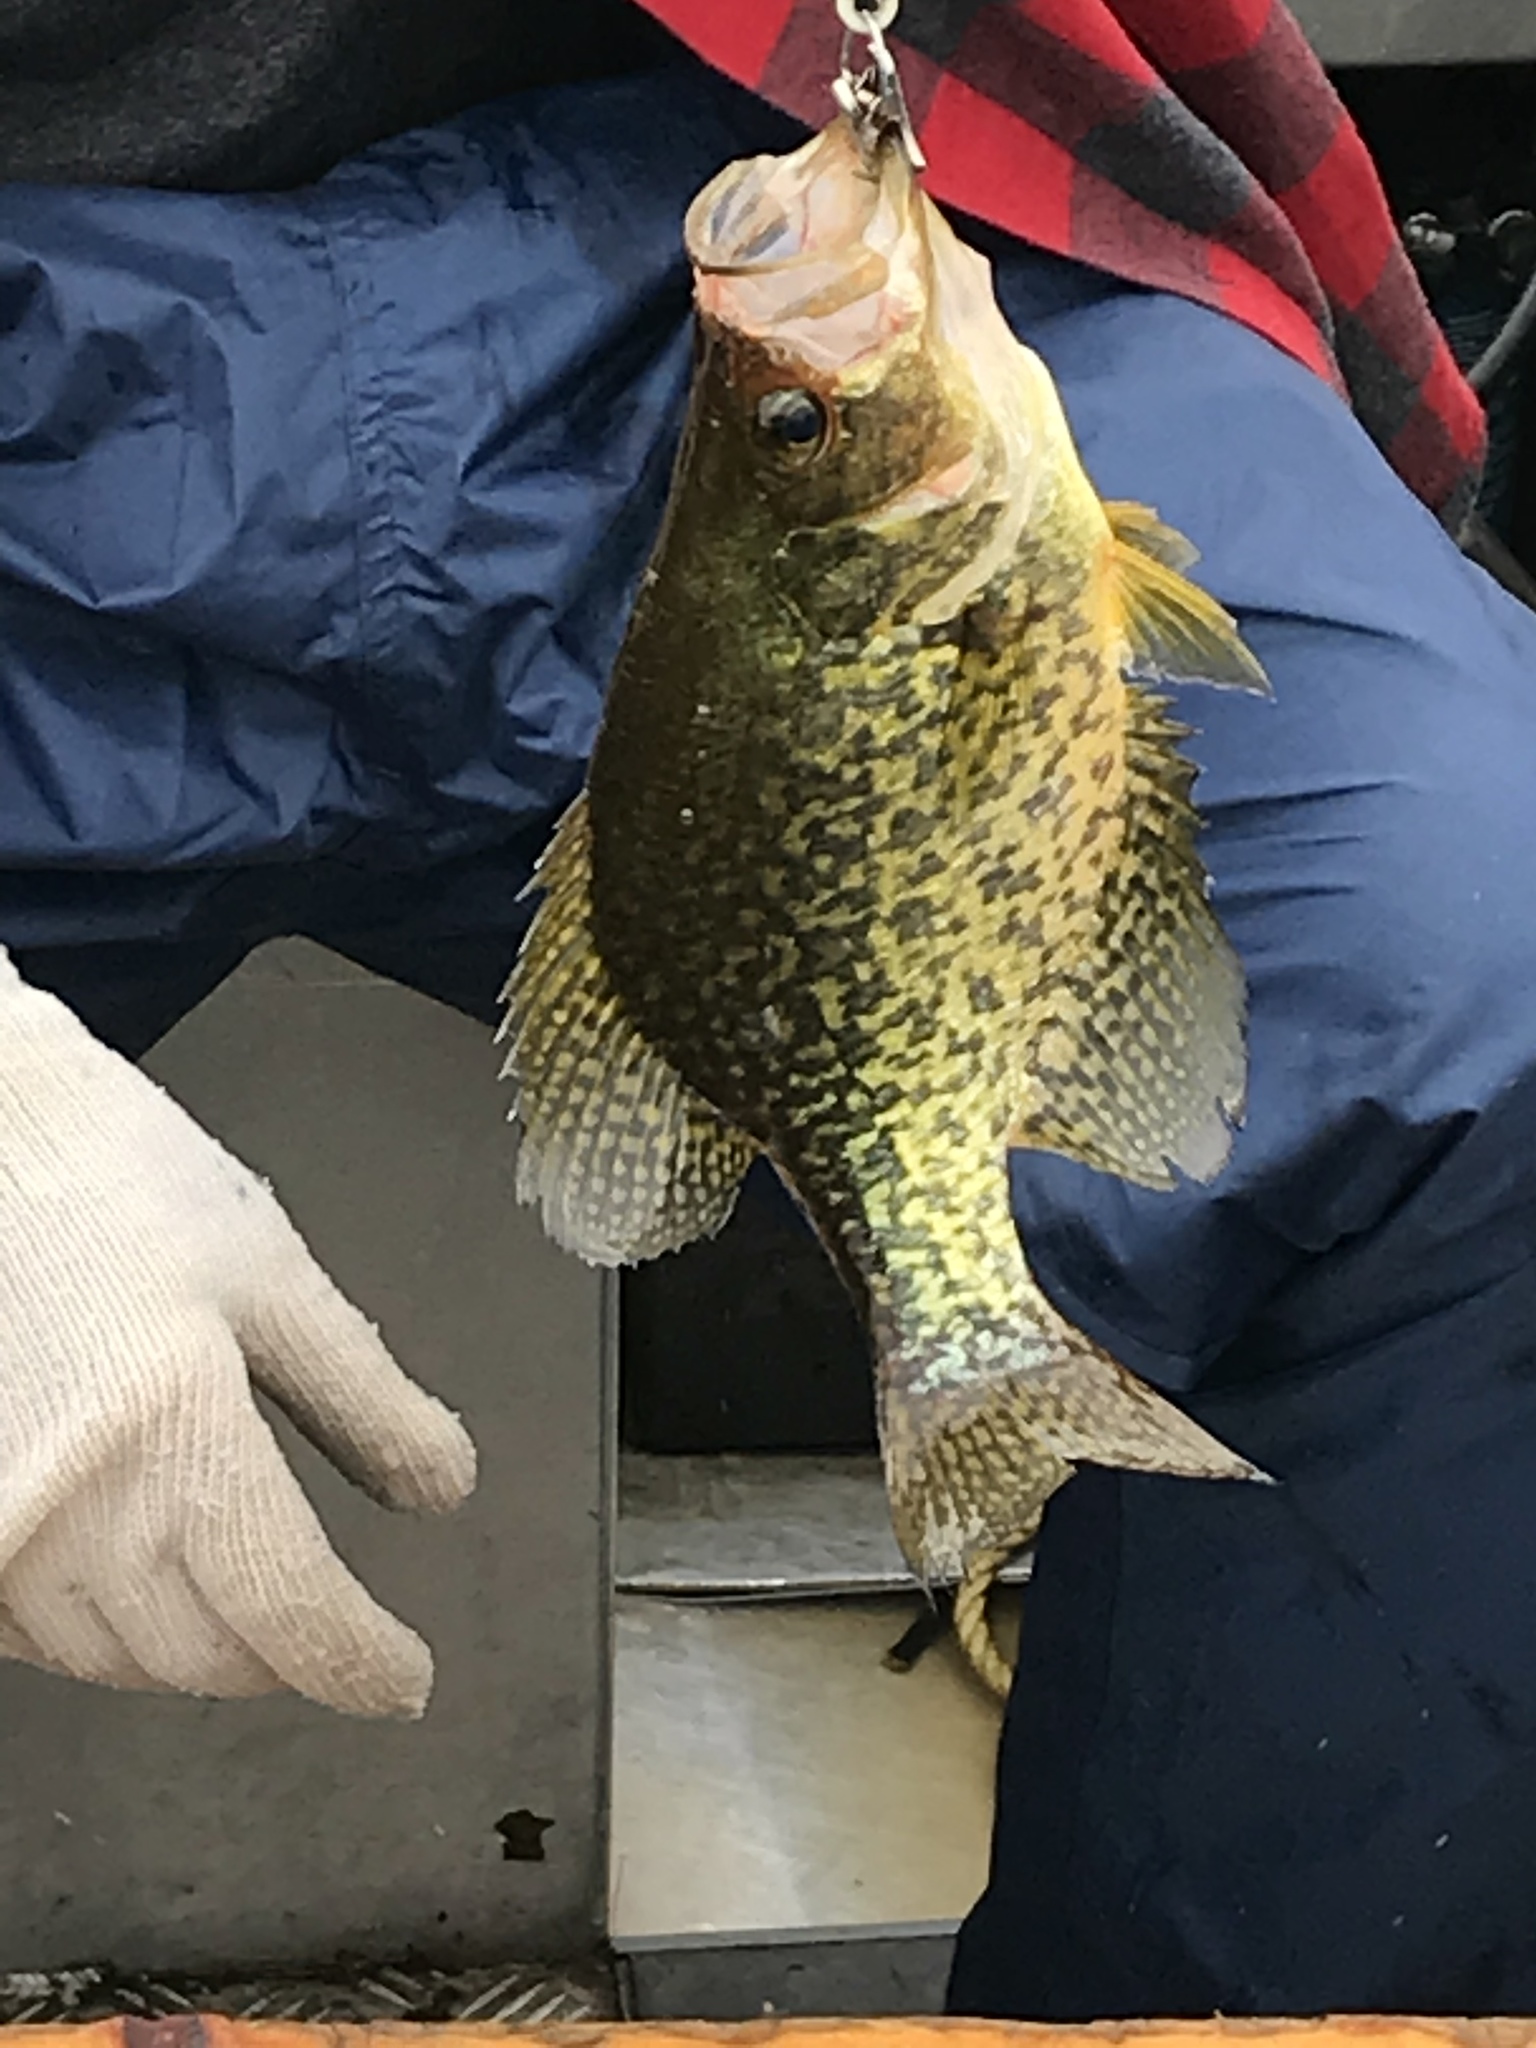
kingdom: Animalia
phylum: Chordata
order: Perciformes
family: Centrarchidae
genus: Pomoxis
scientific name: Pomoxis nigromaculatus
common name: Black crappie
